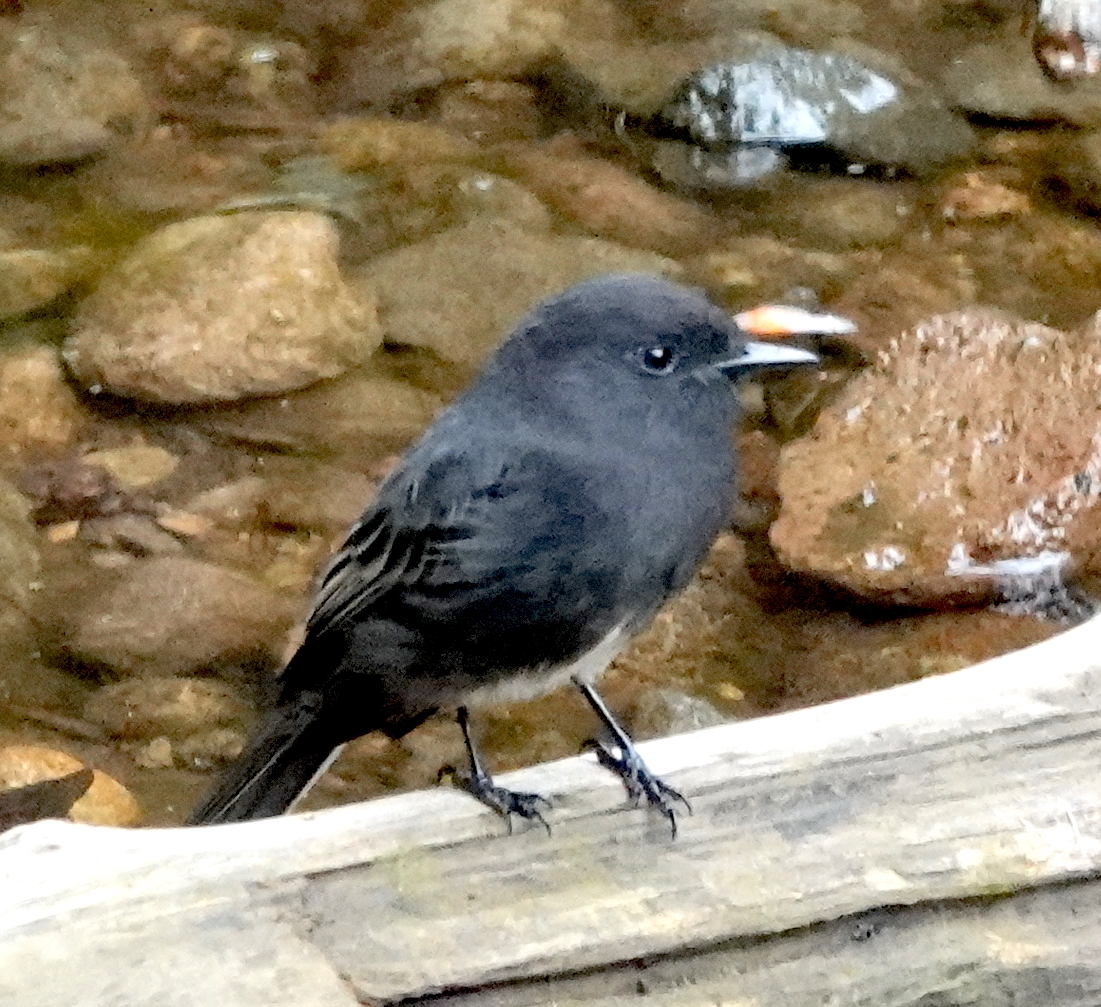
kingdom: Animalia
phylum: Chordata
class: Aves
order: Passeriformes
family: Tyrannidae
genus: Sayornis
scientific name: Sayornis nigricans
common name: Black phoebe
